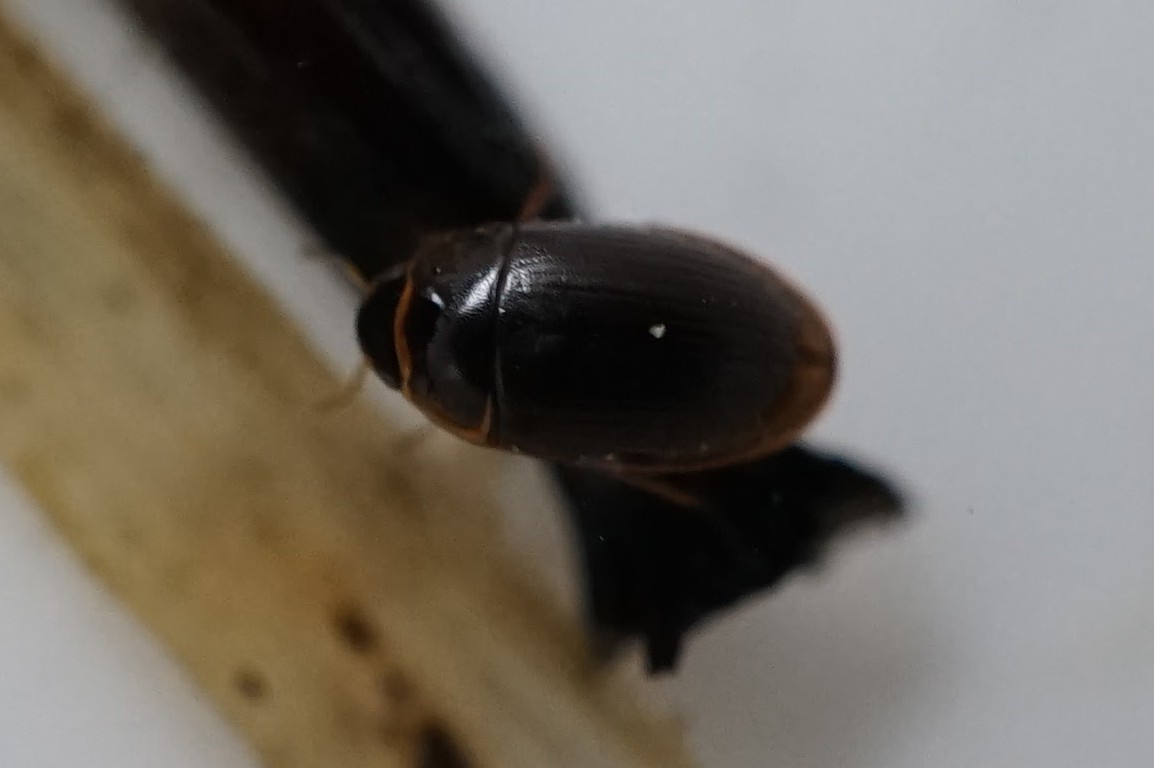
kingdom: Animalia
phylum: Arthropoda
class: Insecta
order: Coleoptera
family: Hydrophilidae
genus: Enochrus
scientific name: Enochrus simulans
